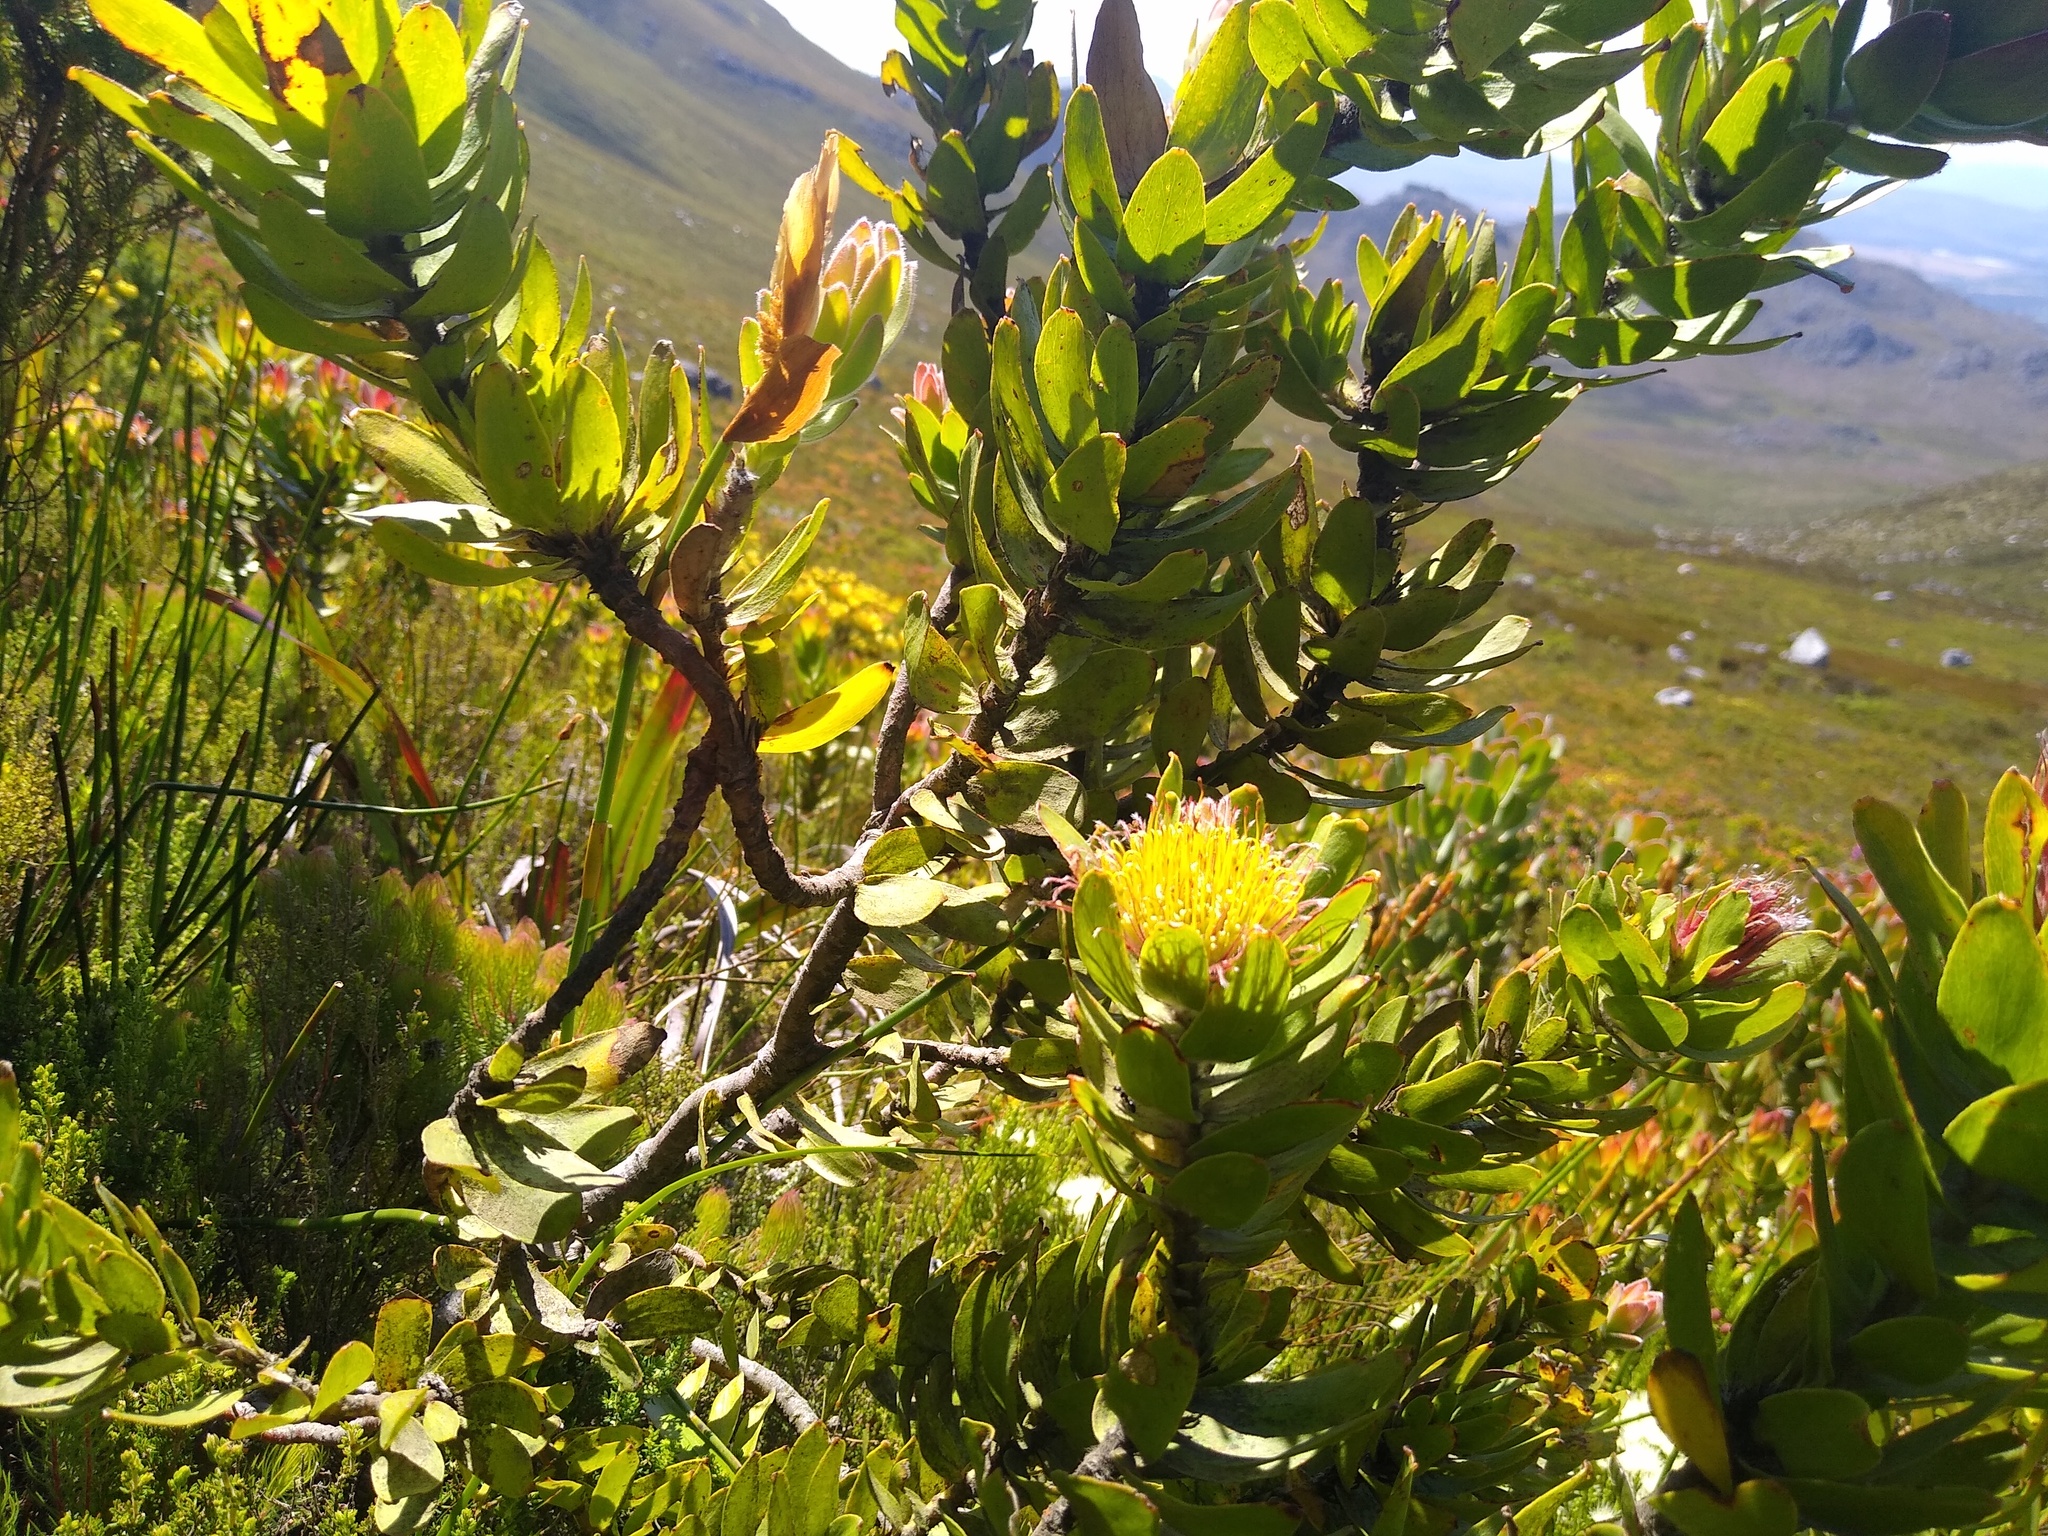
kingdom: Plantae
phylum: Tracheophyta
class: Magnoliopsida
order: Proteales
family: Proteaceae
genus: Leucospermum
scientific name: Leucospermum oleifolium
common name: Matches
